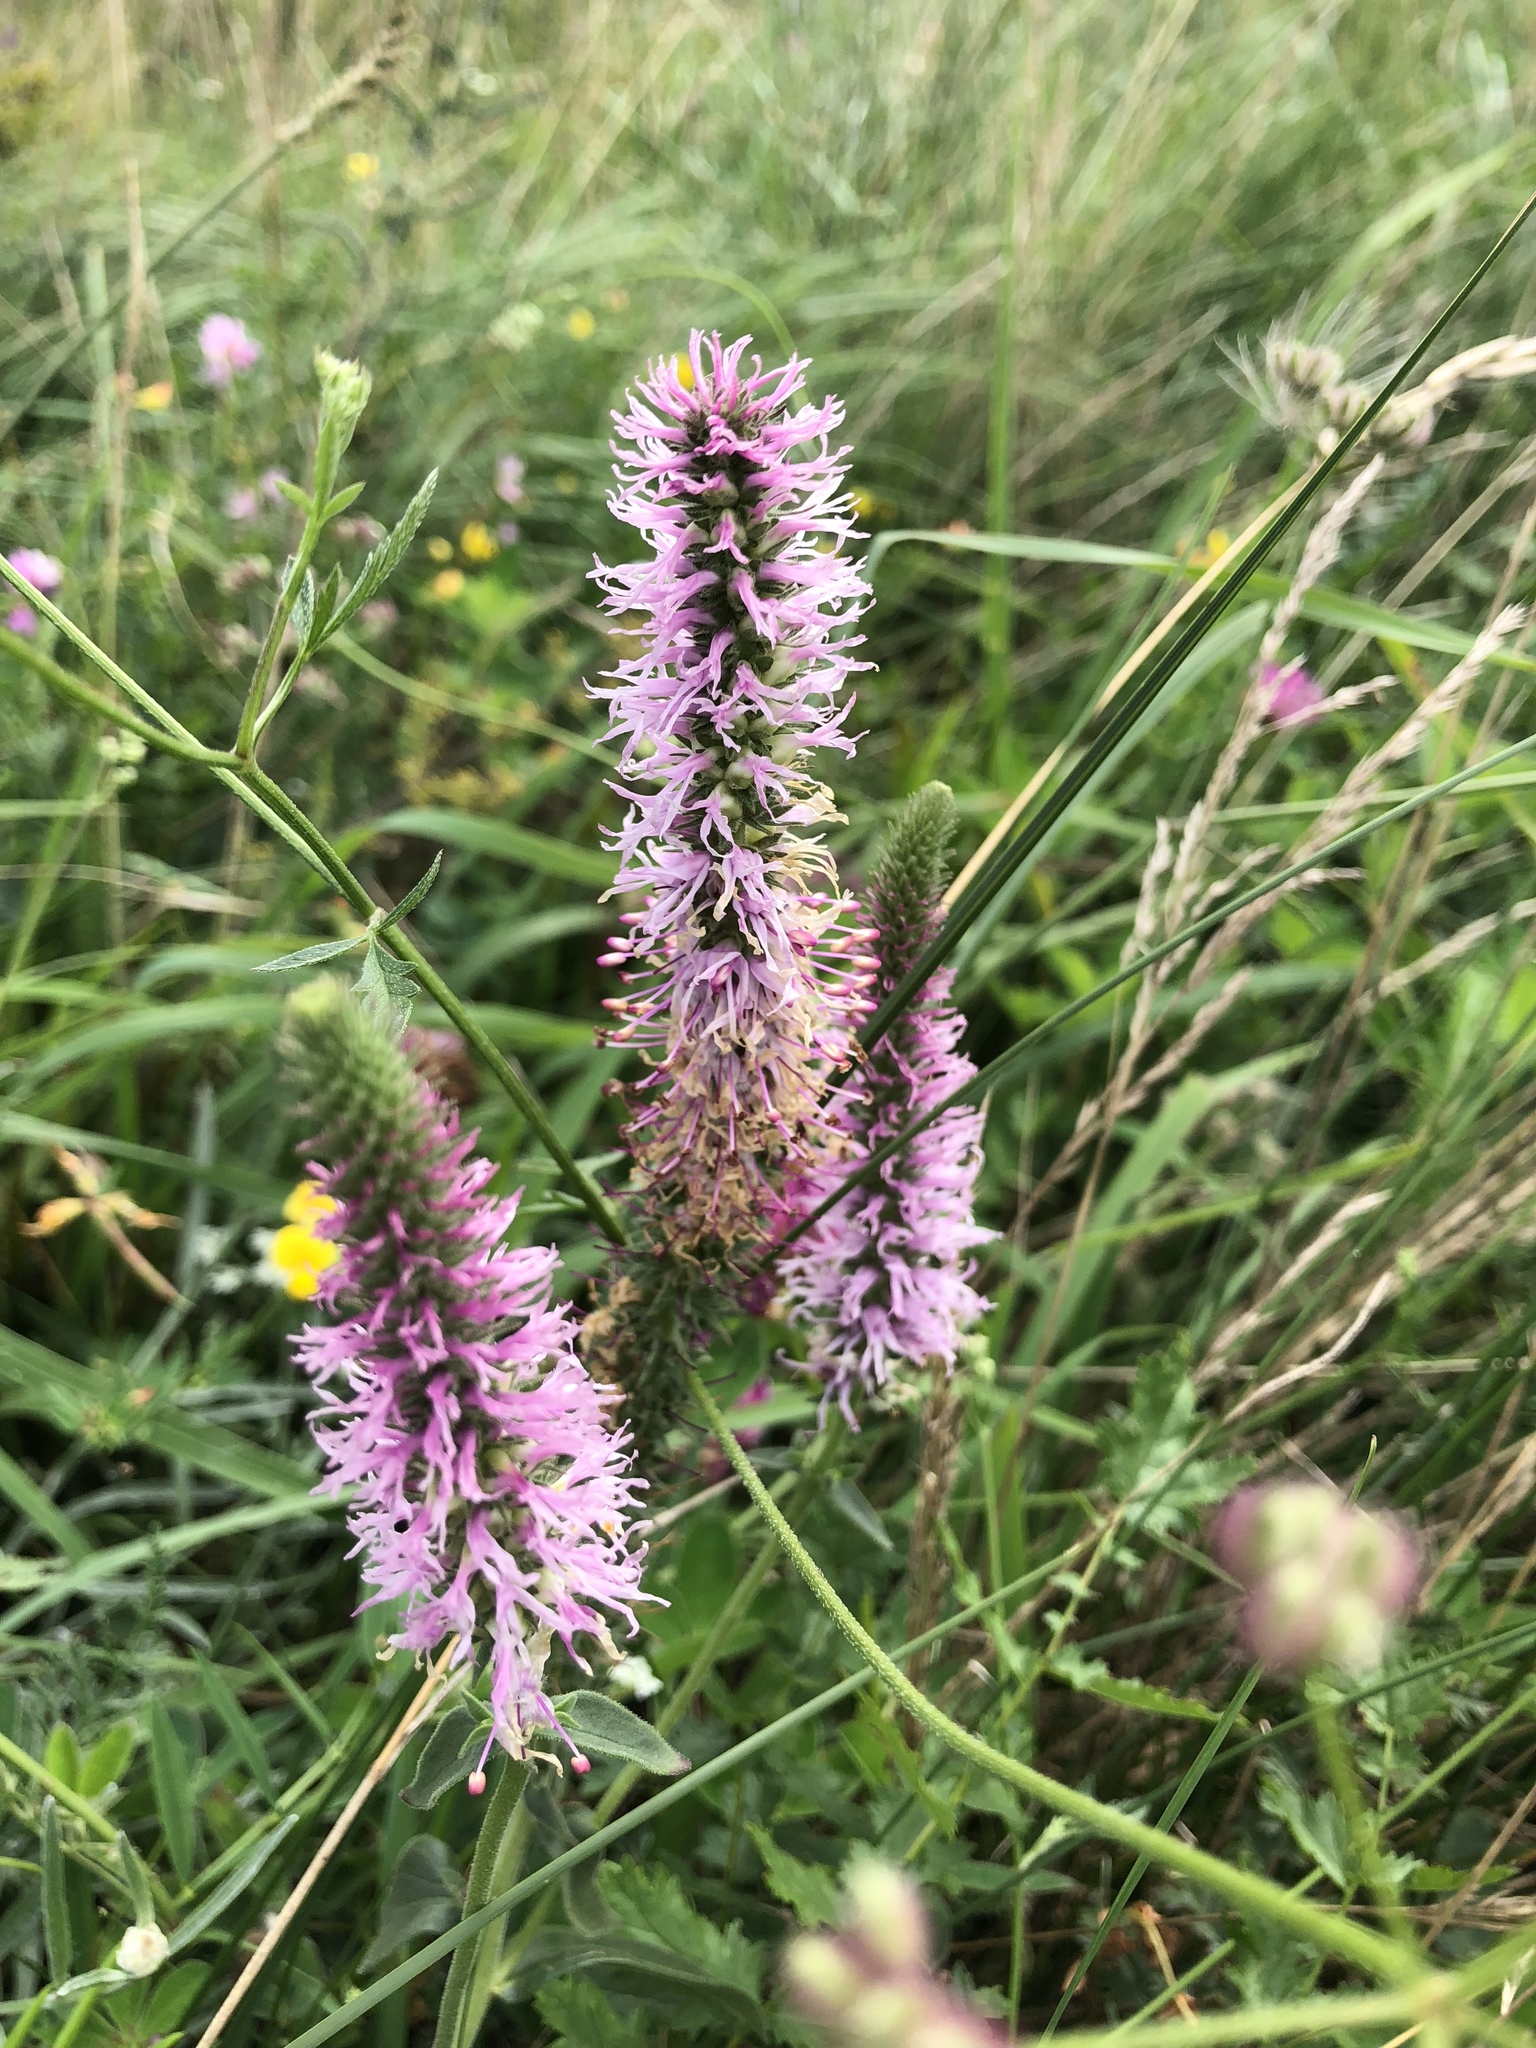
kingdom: Plantae
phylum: Tracheophyta
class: Magnoliopsida
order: Lamiales
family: Plantaginaceae
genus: Veronica
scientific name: Veronica orchidea
